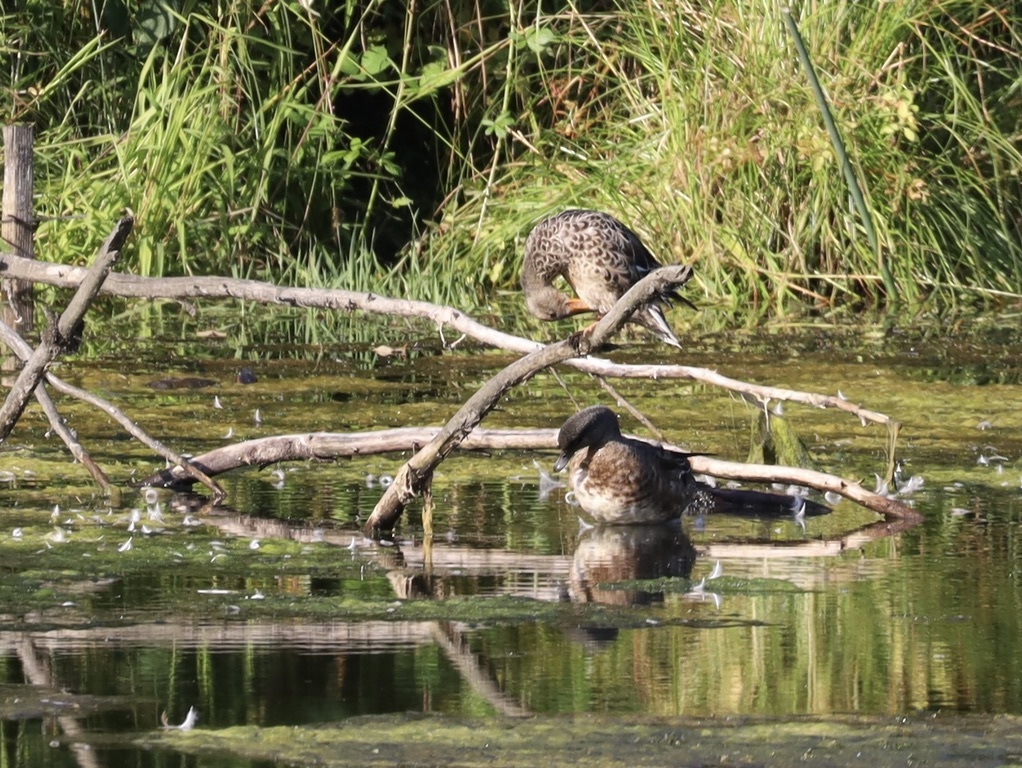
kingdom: Animalia
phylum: Chordata
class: Aves
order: Anseriformes
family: Anatidae
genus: Spatula
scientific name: Spatula clypeata
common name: Northern shoveler
